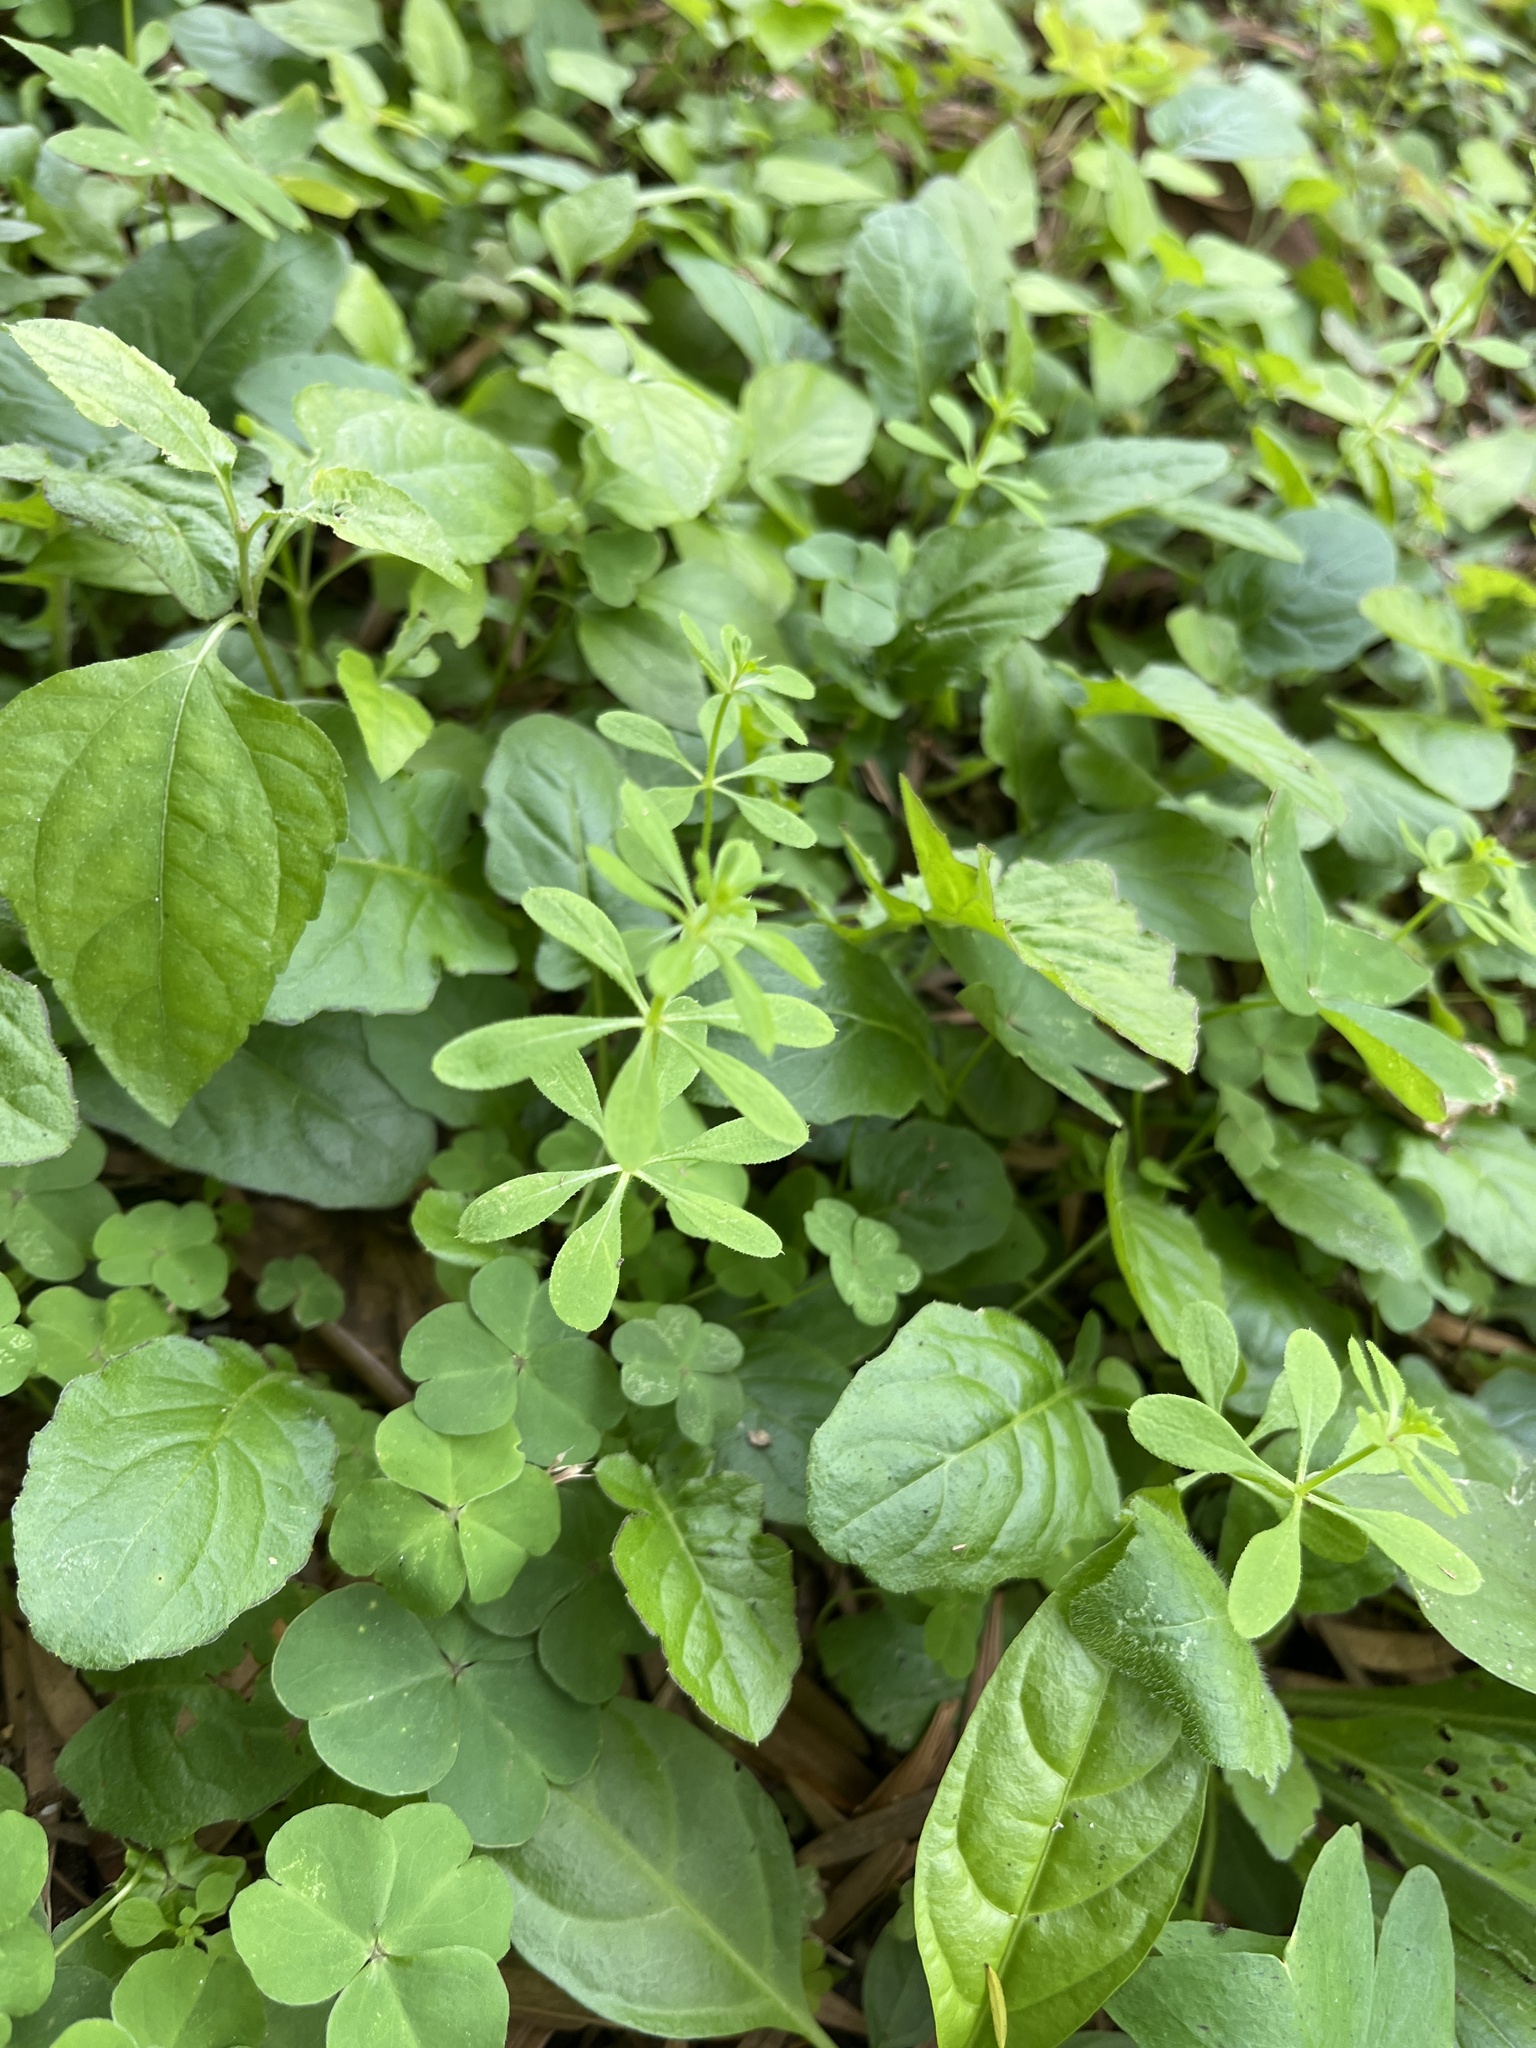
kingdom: Plantae
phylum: Tracheophyta
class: Magnoliopsida
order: Gentianales
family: Rubiaceae
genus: Galium
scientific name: Galium aparine
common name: Cleavers
